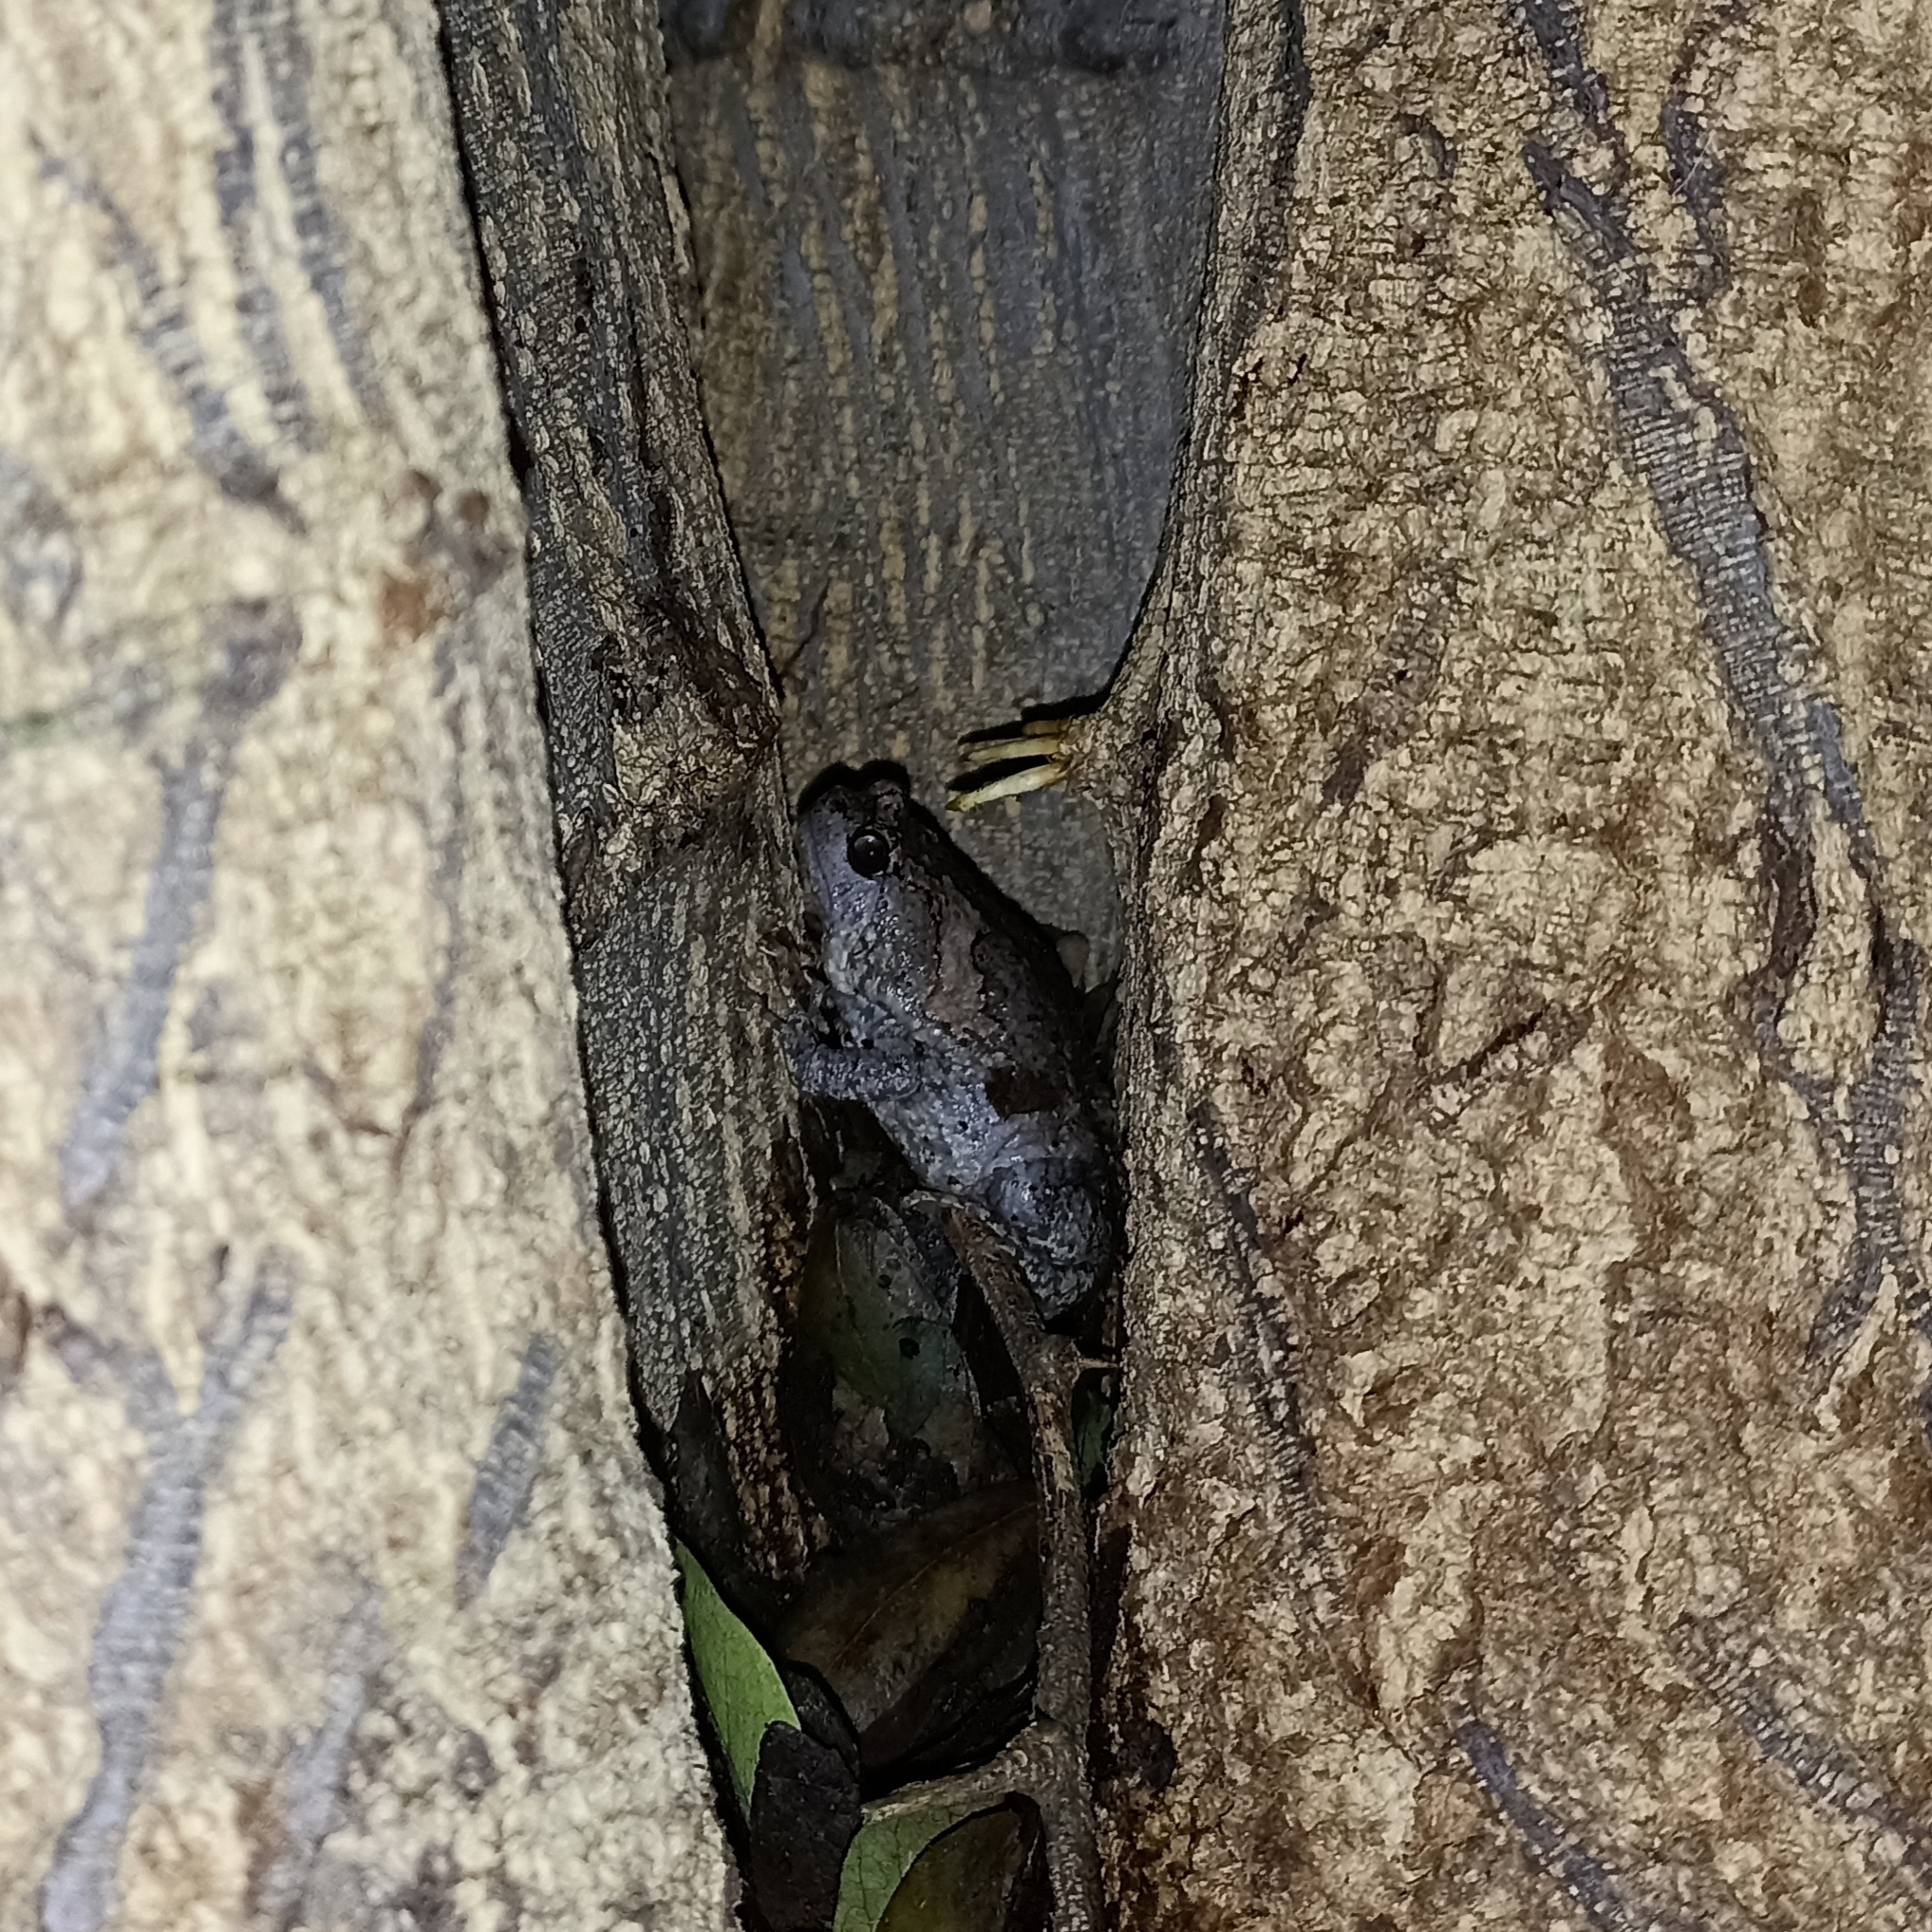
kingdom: Animalia
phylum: Chordata
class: Amphibia
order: Anura
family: Microhylidae
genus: Uperodon
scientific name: Uperodon taprobanicus
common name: Ceylon kaloula
